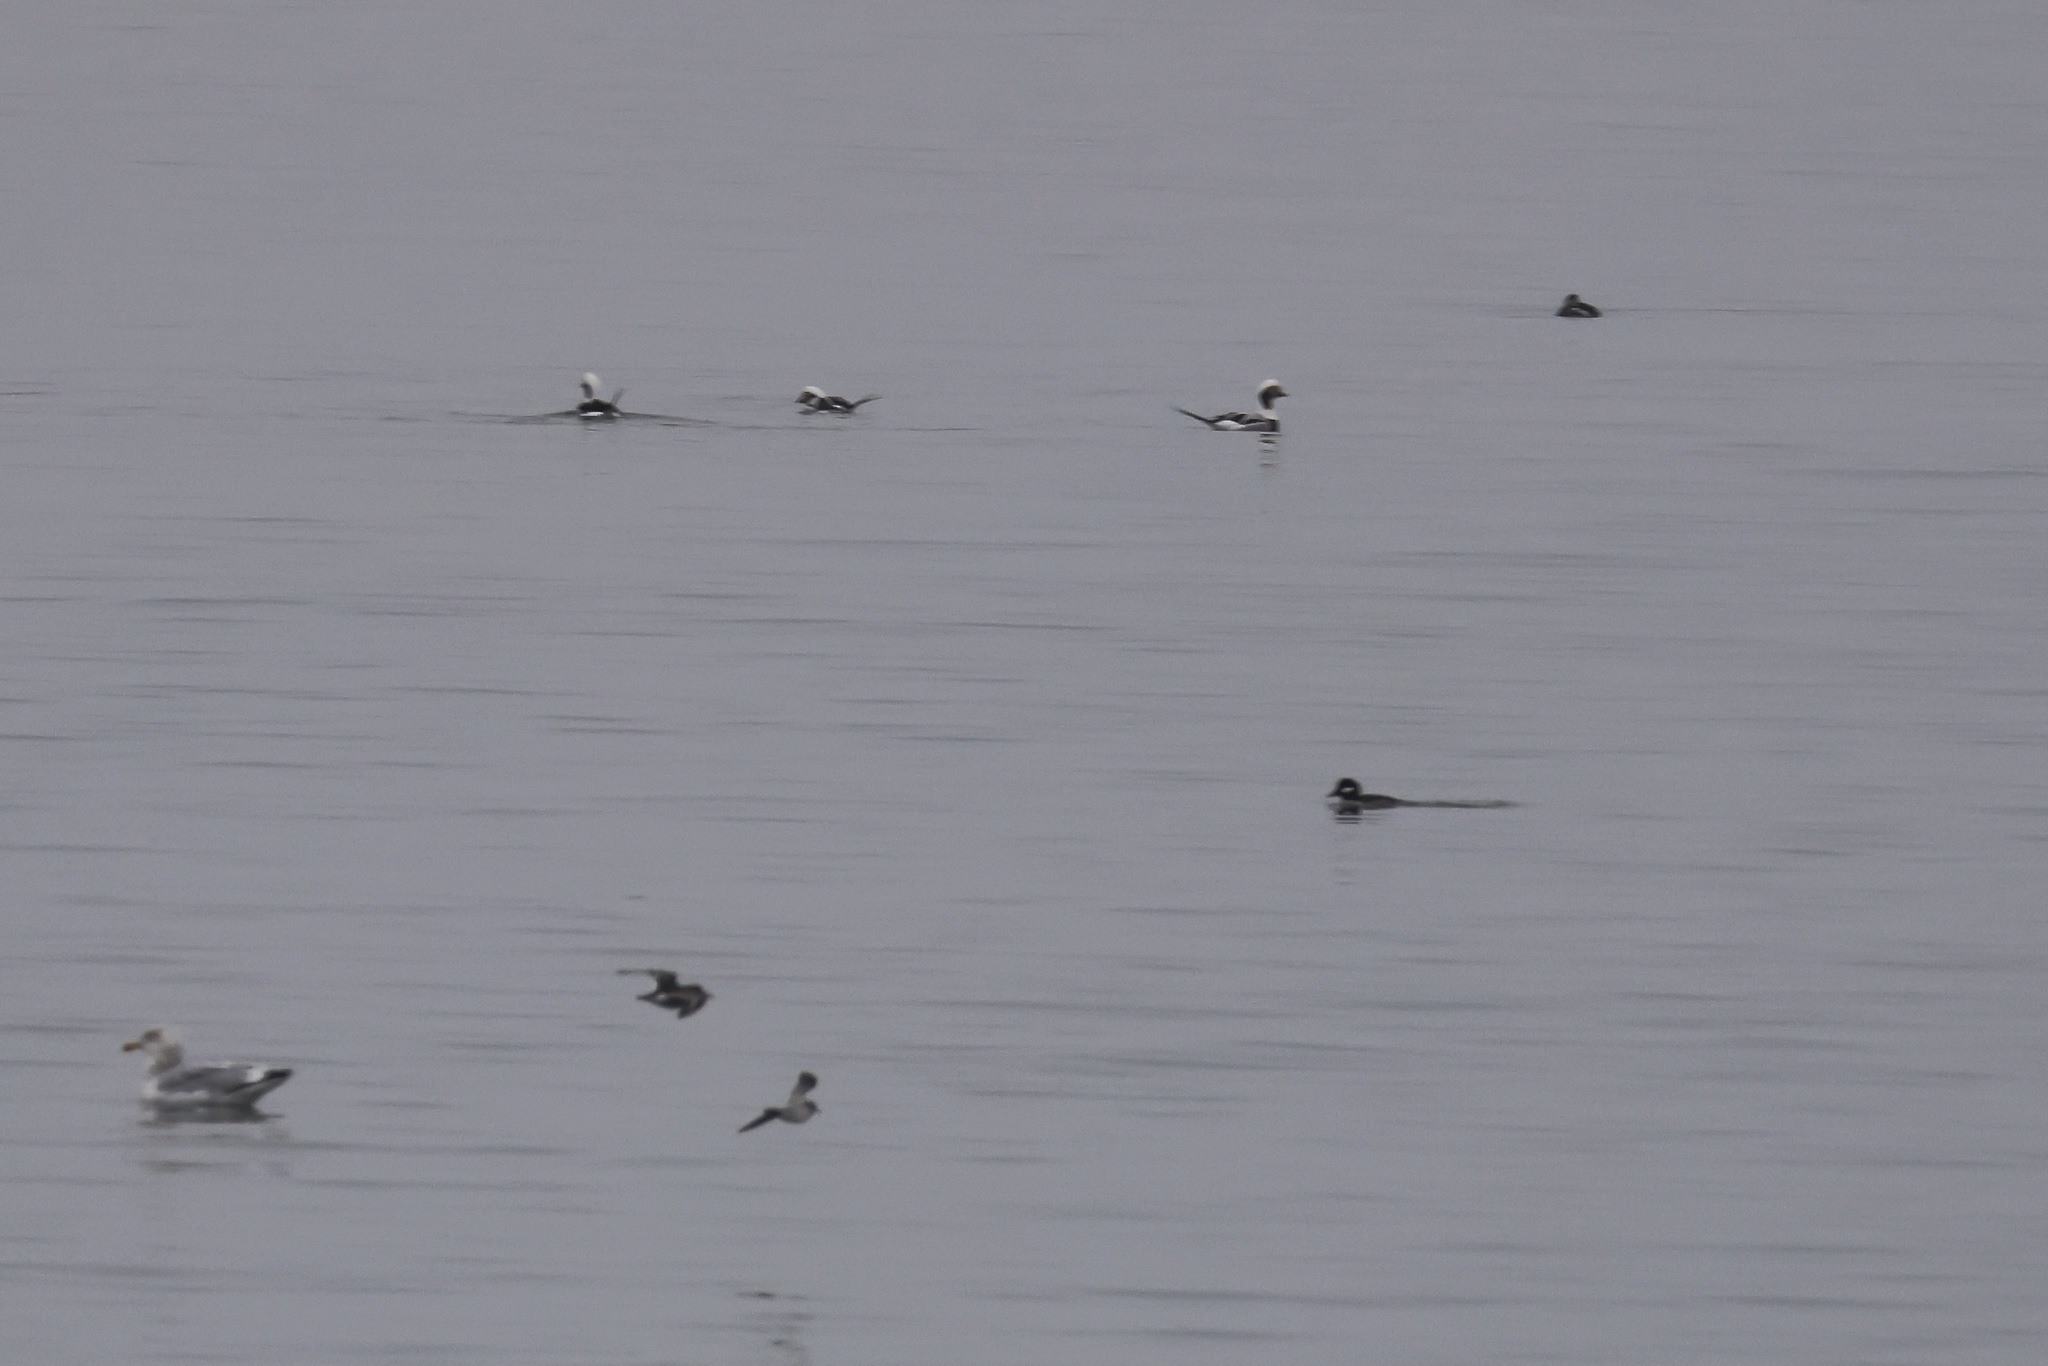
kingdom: Animalia
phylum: Chordata
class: Aves
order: Anseriformes
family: Anatidae
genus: Clangula
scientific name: Clangula hyemalis
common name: Long-tailed duck
